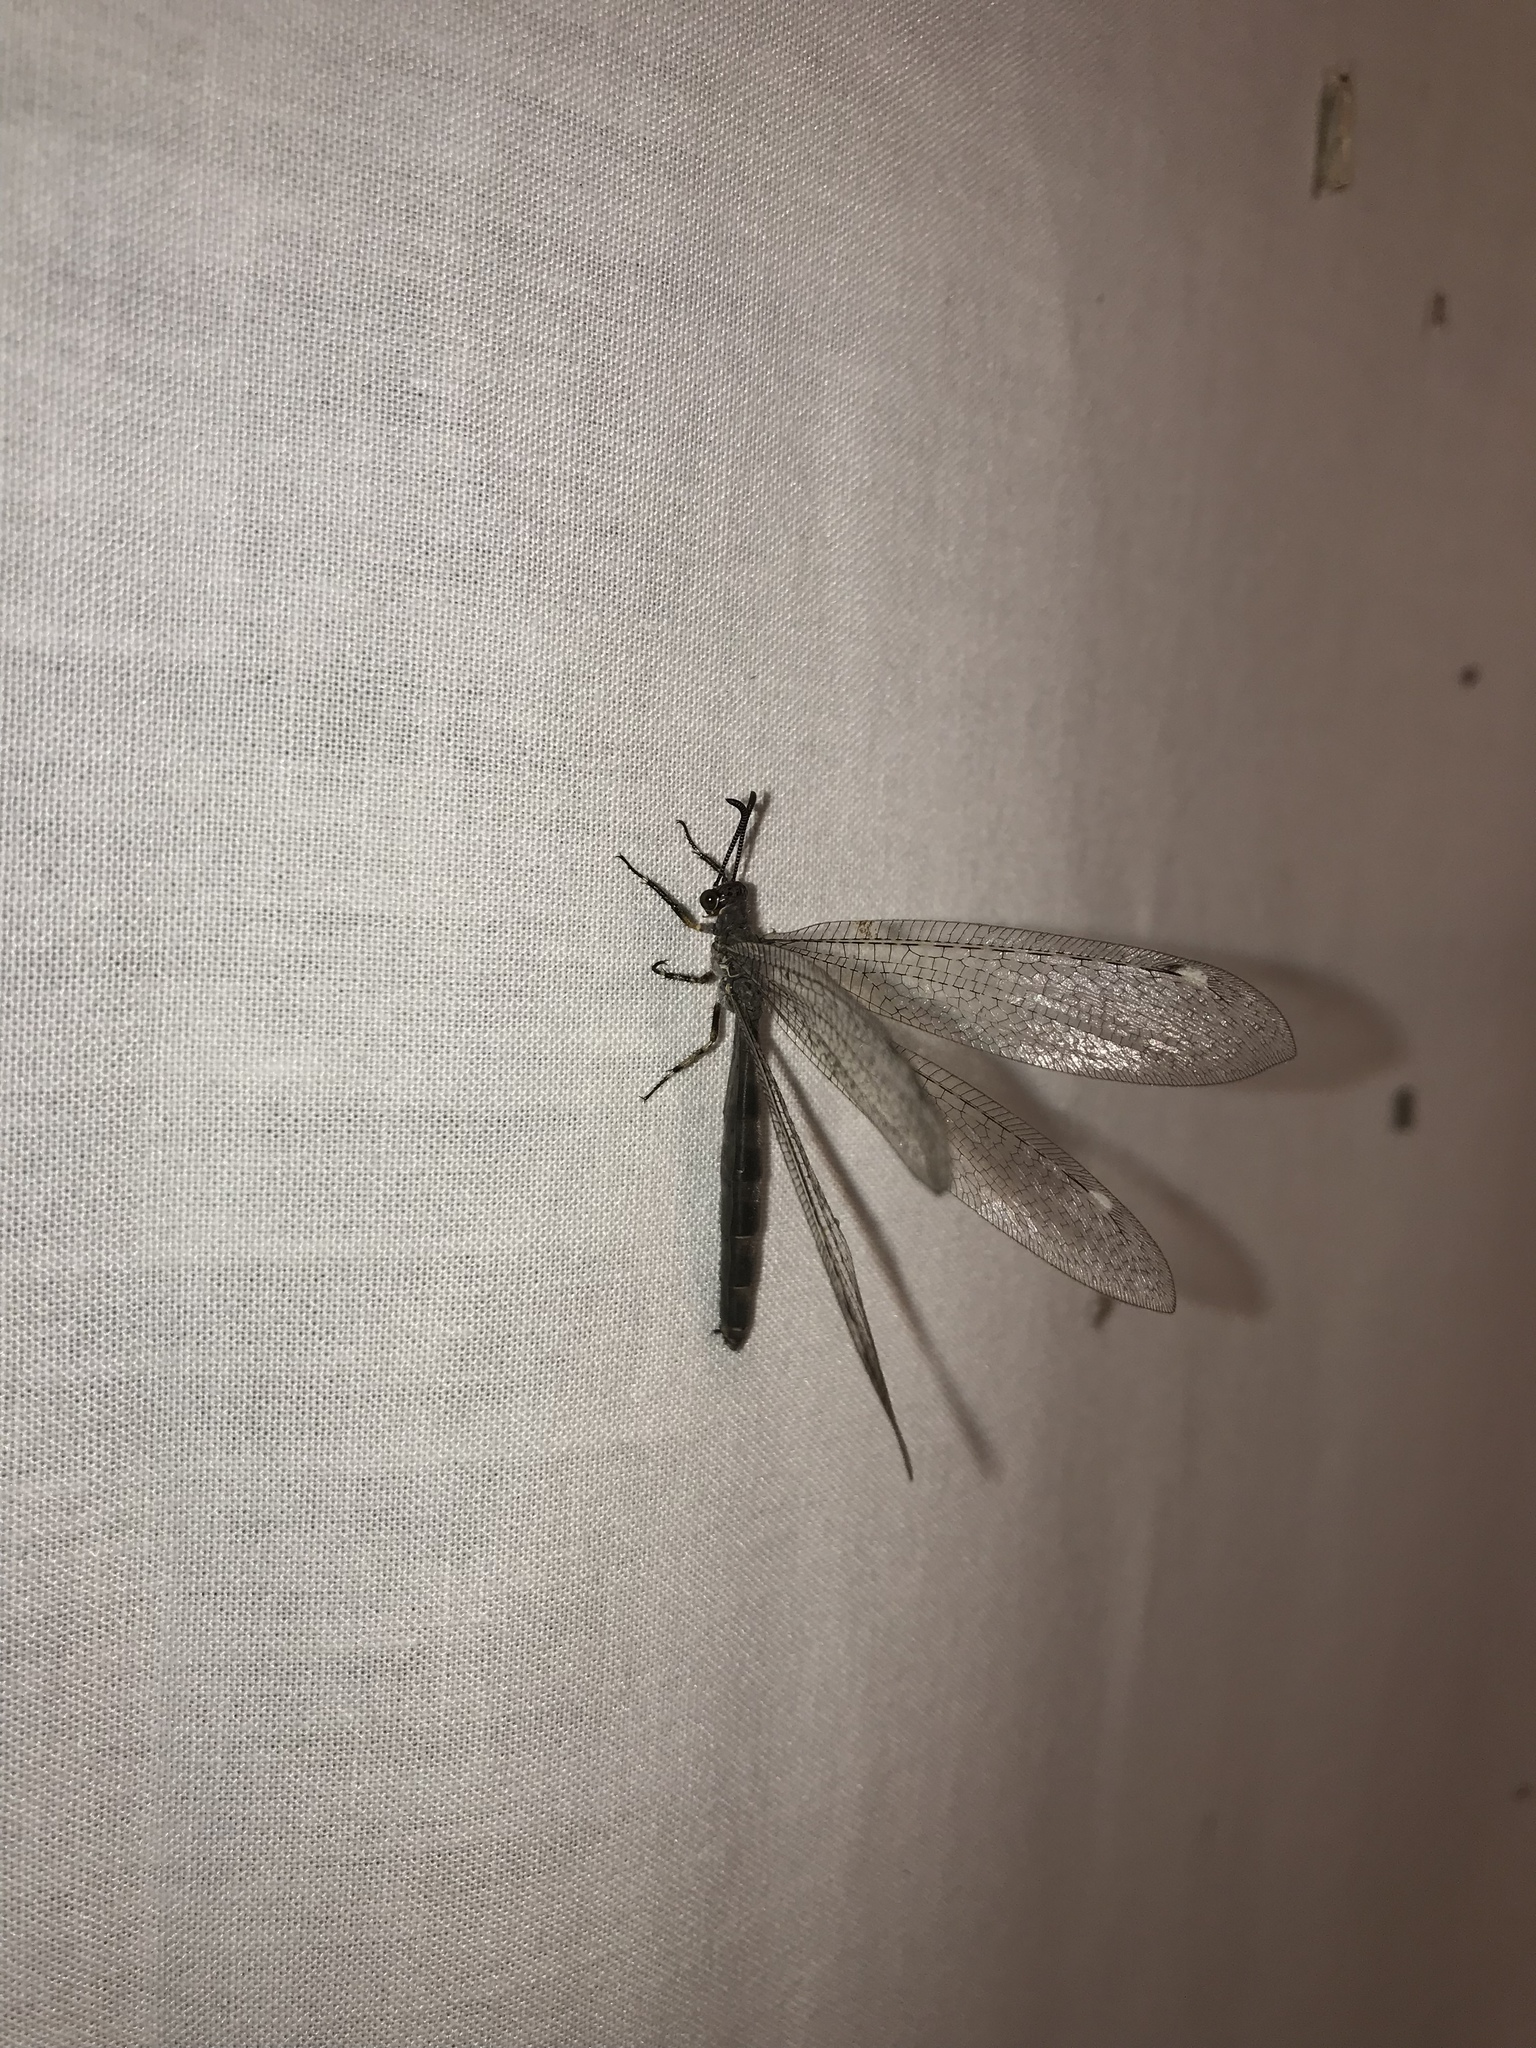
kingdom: Animalia
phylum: Arthropoda
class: Insecta
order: Neuroptera
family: Myrmeleontidae
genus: Myrmeleon
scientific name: Myrmeleon immaculatus
